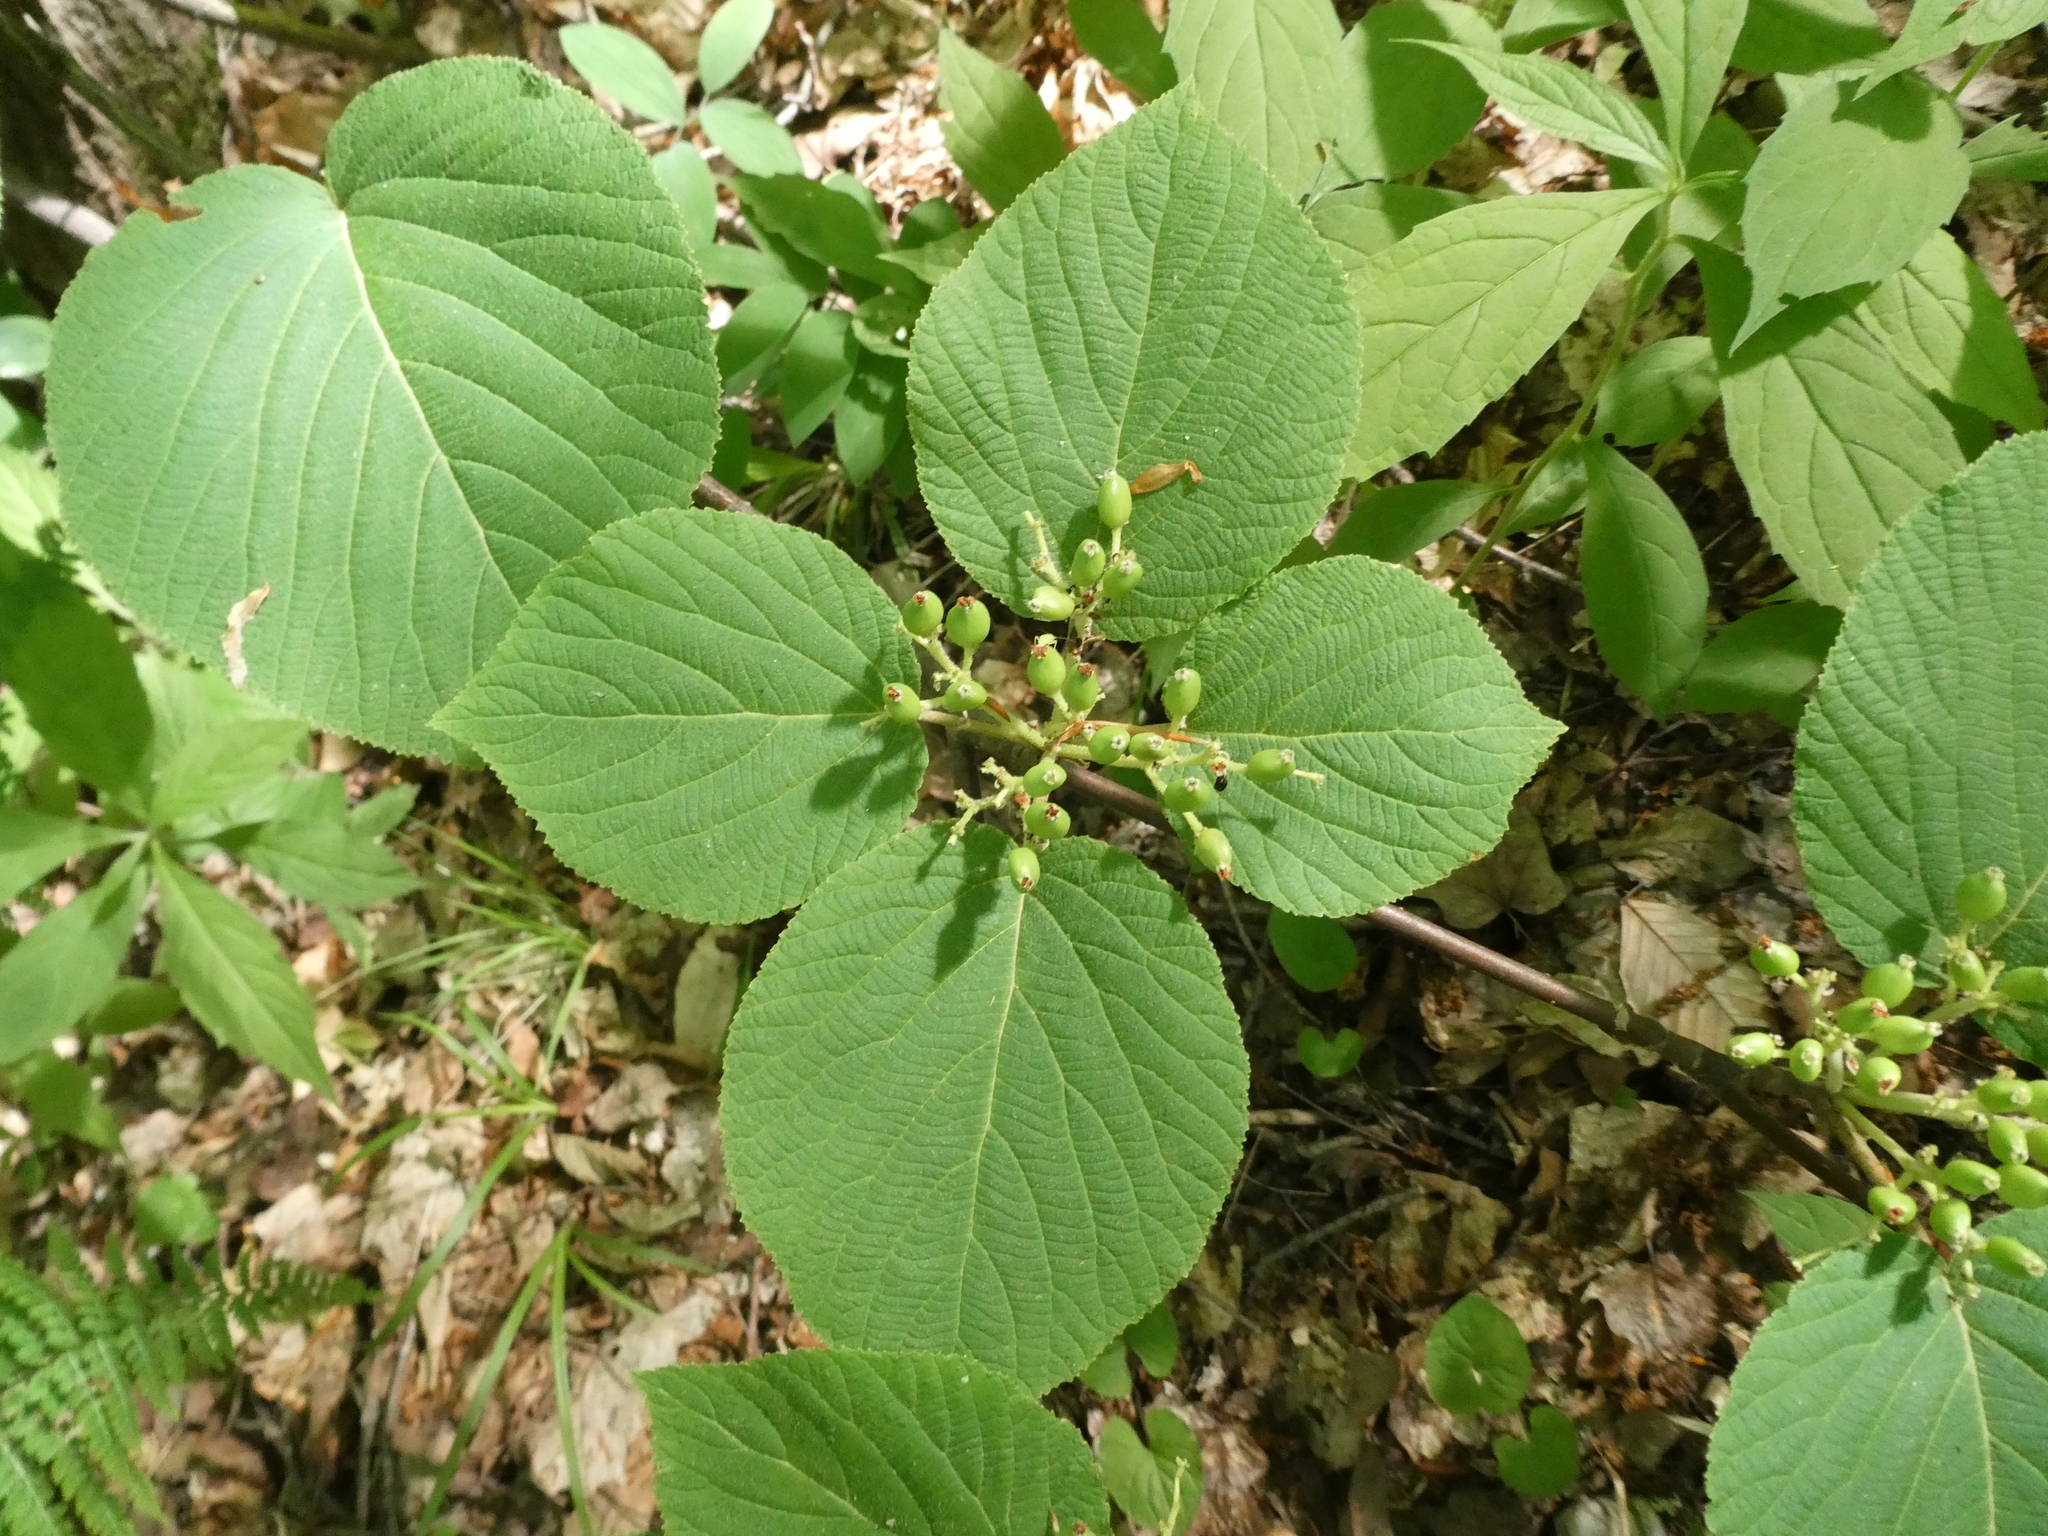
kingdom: Plantae
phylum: Tracheophyta
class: Magnoliopsida
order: Dipsacales
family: Viburnaceae
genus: Viburnum
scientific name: Viburnum lantanoides
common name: Hobblebush
